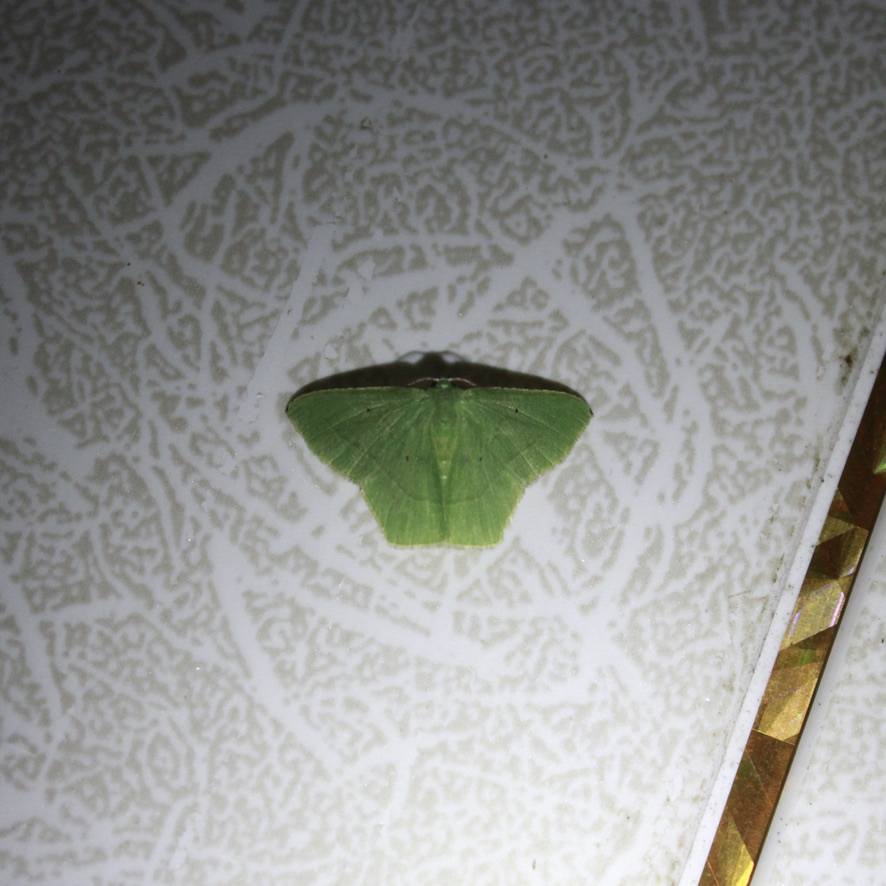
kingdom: Animalia
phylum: Arthropoda
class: Insecta
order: Lepidoptera
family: Geometridae
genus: Phrudocentra
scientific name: Phrudocentra pupillata
